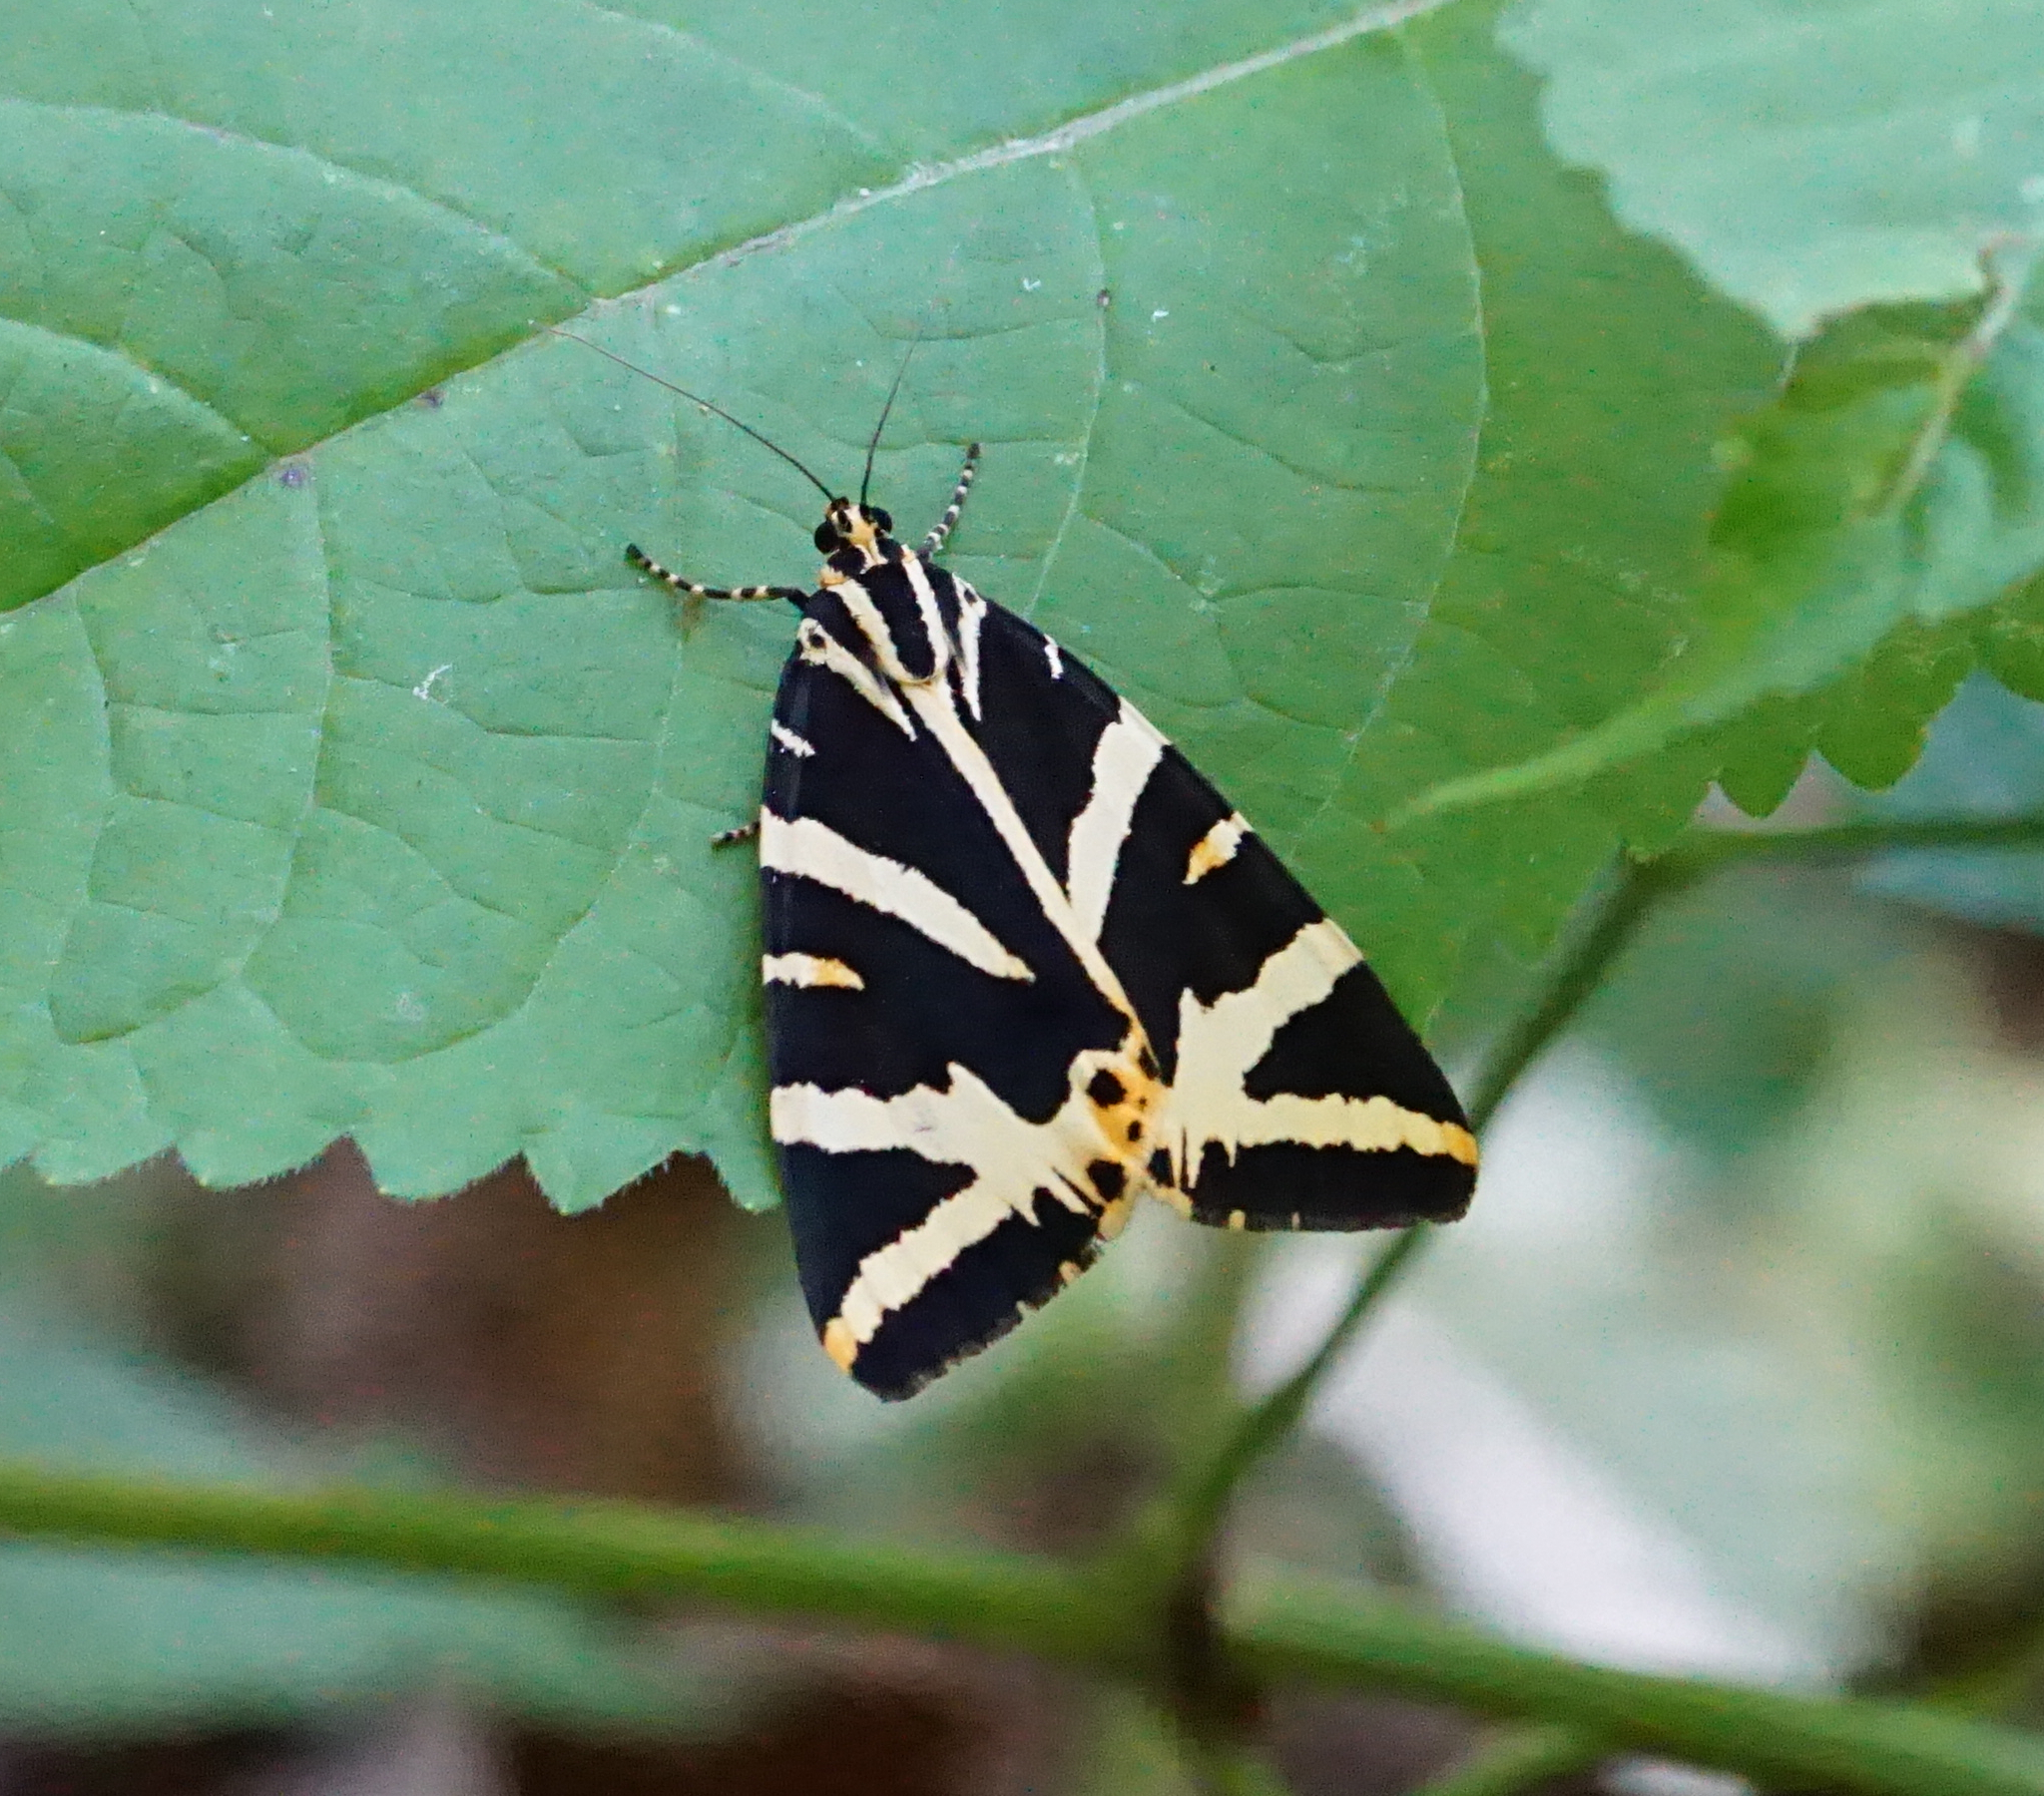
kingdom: Animalia
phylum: Arthropoda
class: Insecta
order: Lepidoptera
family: Erebidae
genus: Euplagia
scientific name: Euplagia quadripunctaria
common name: Jersey tiger
